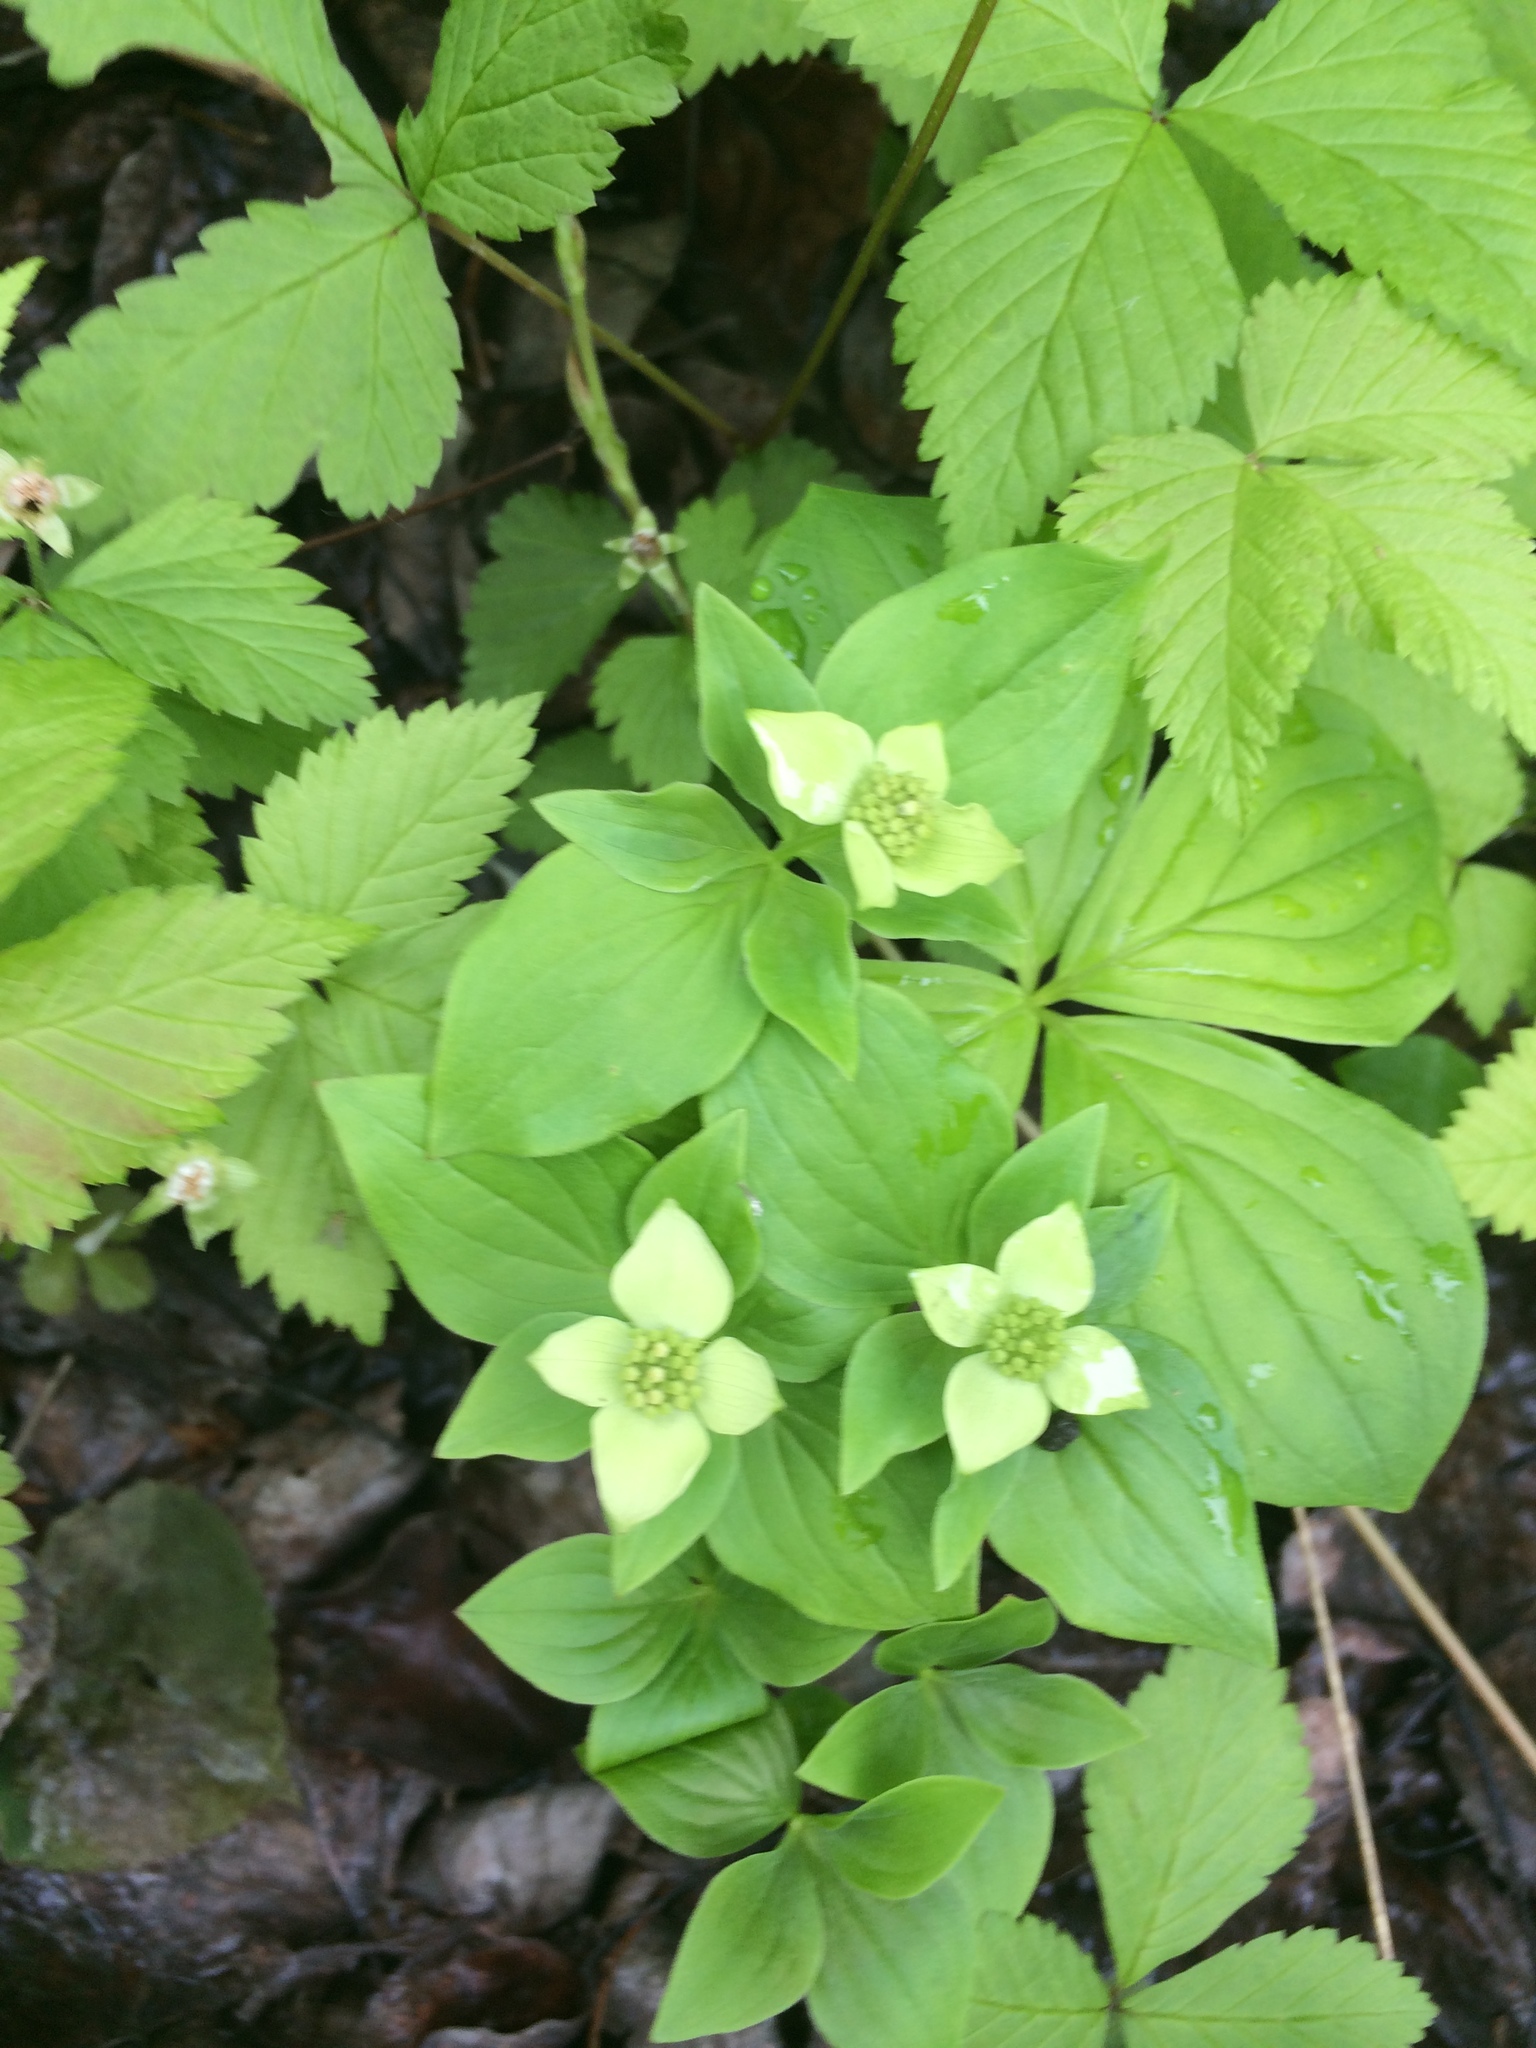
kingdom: Plantae
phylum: Tracheophyta
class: Magnoliopsida
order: Cornales
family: Cornaceae
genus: Cornus
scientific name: Cornus canadensis
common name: Creeping dogwood
